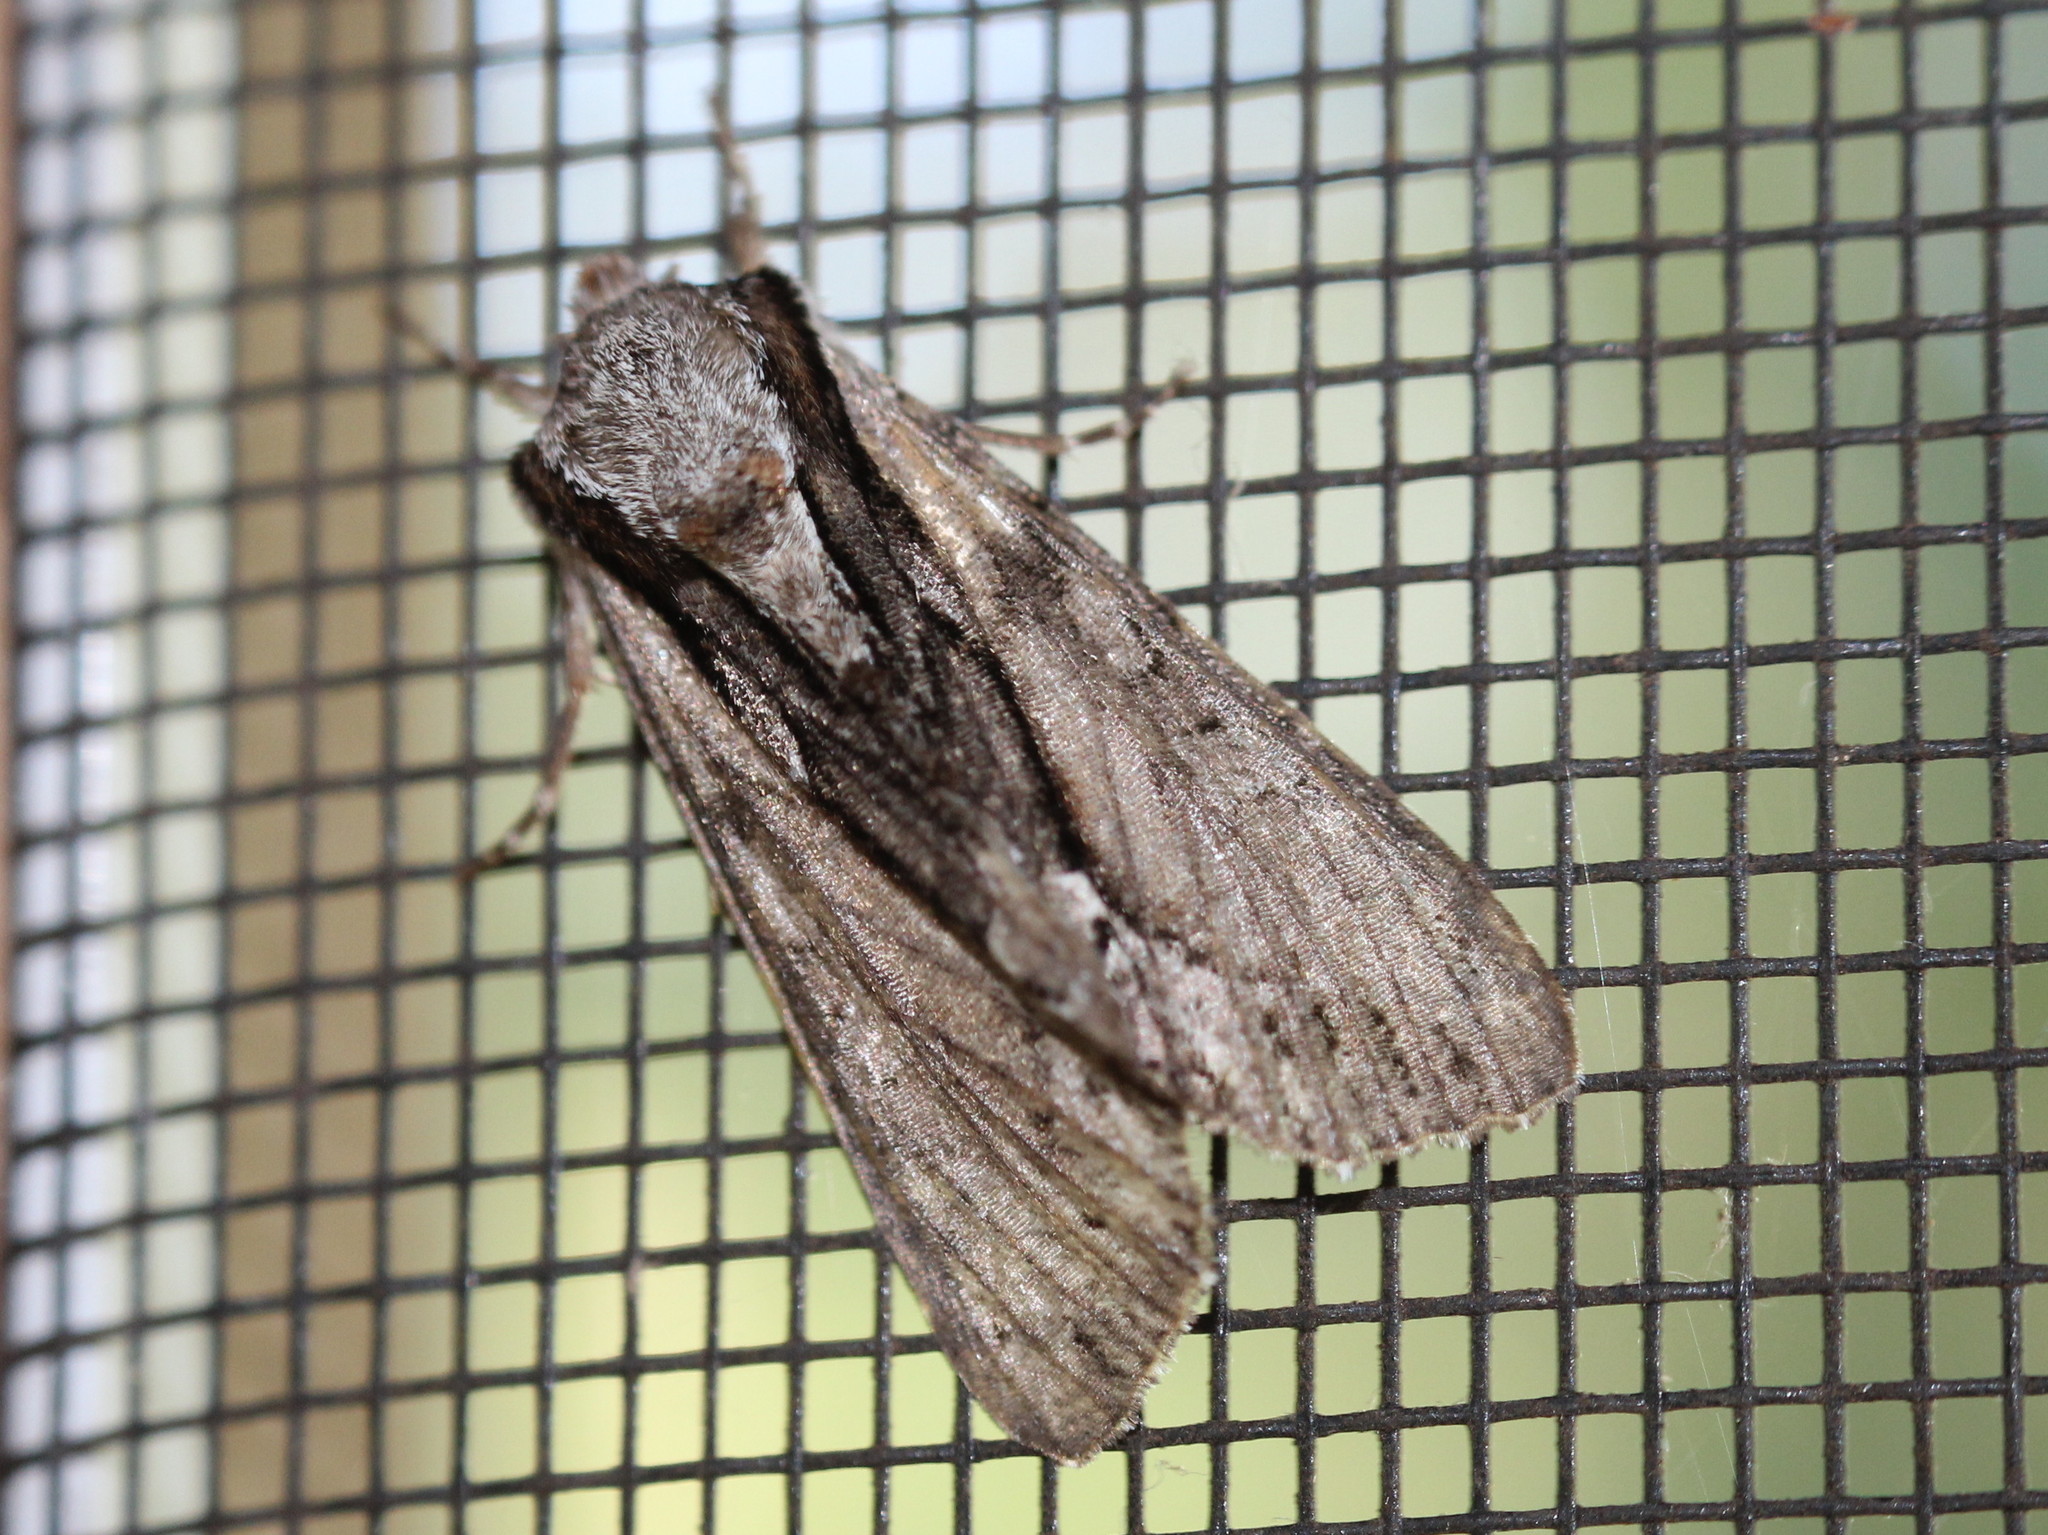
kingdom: Animalia
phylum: Arthropoda
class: Insecta
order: Lepidoptera
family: Noctuidae
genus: Hyppa
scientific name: Hyppa xylinoides
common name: Common hyppa moth
